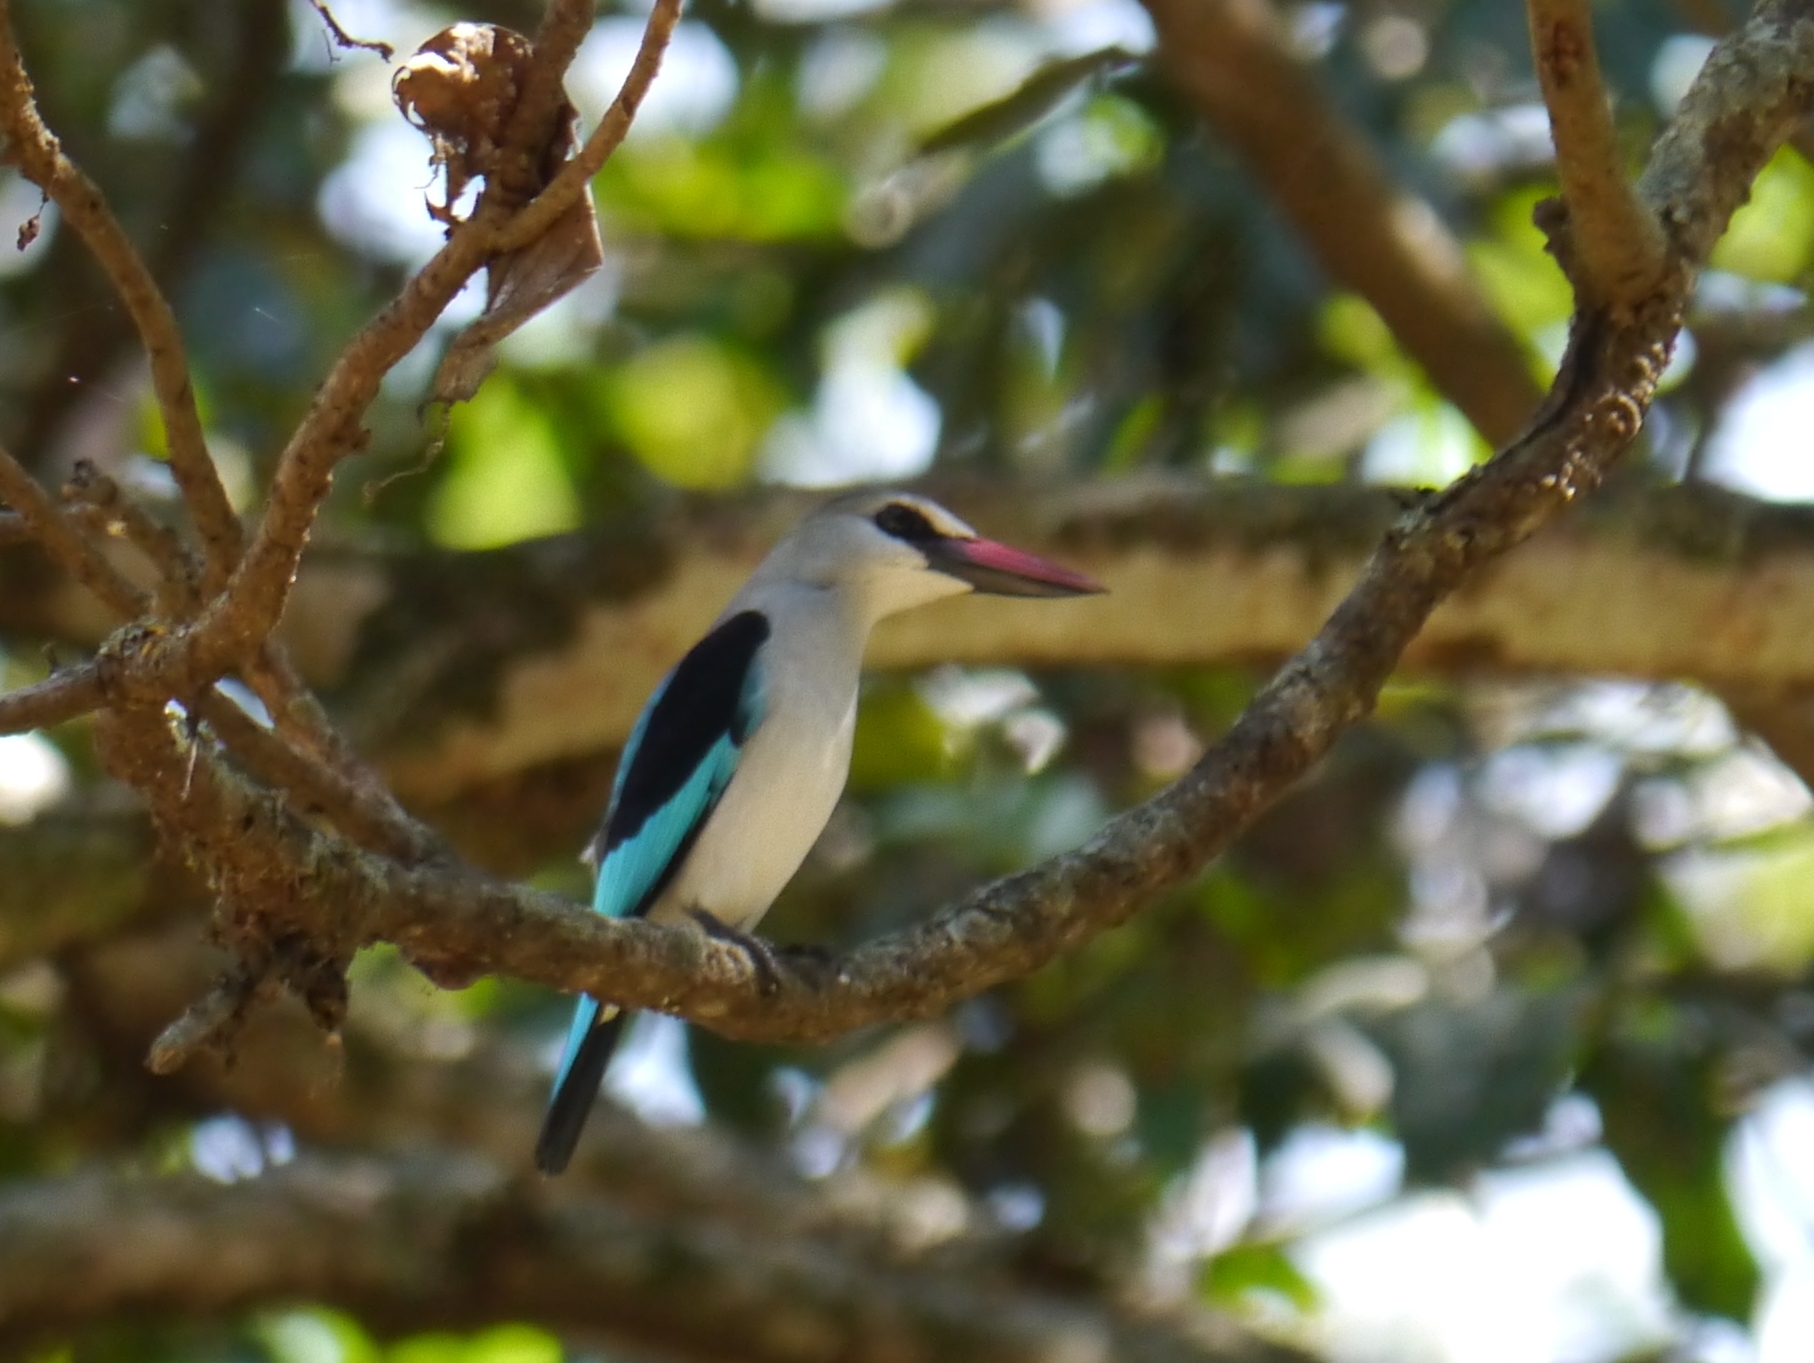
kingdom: Animalia
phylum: Chordata
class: Aves
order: Coraciiformes
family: Alcedinidae
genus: Halcyon
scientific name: Halcyon senegalensis
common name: Woodland kingfisher
